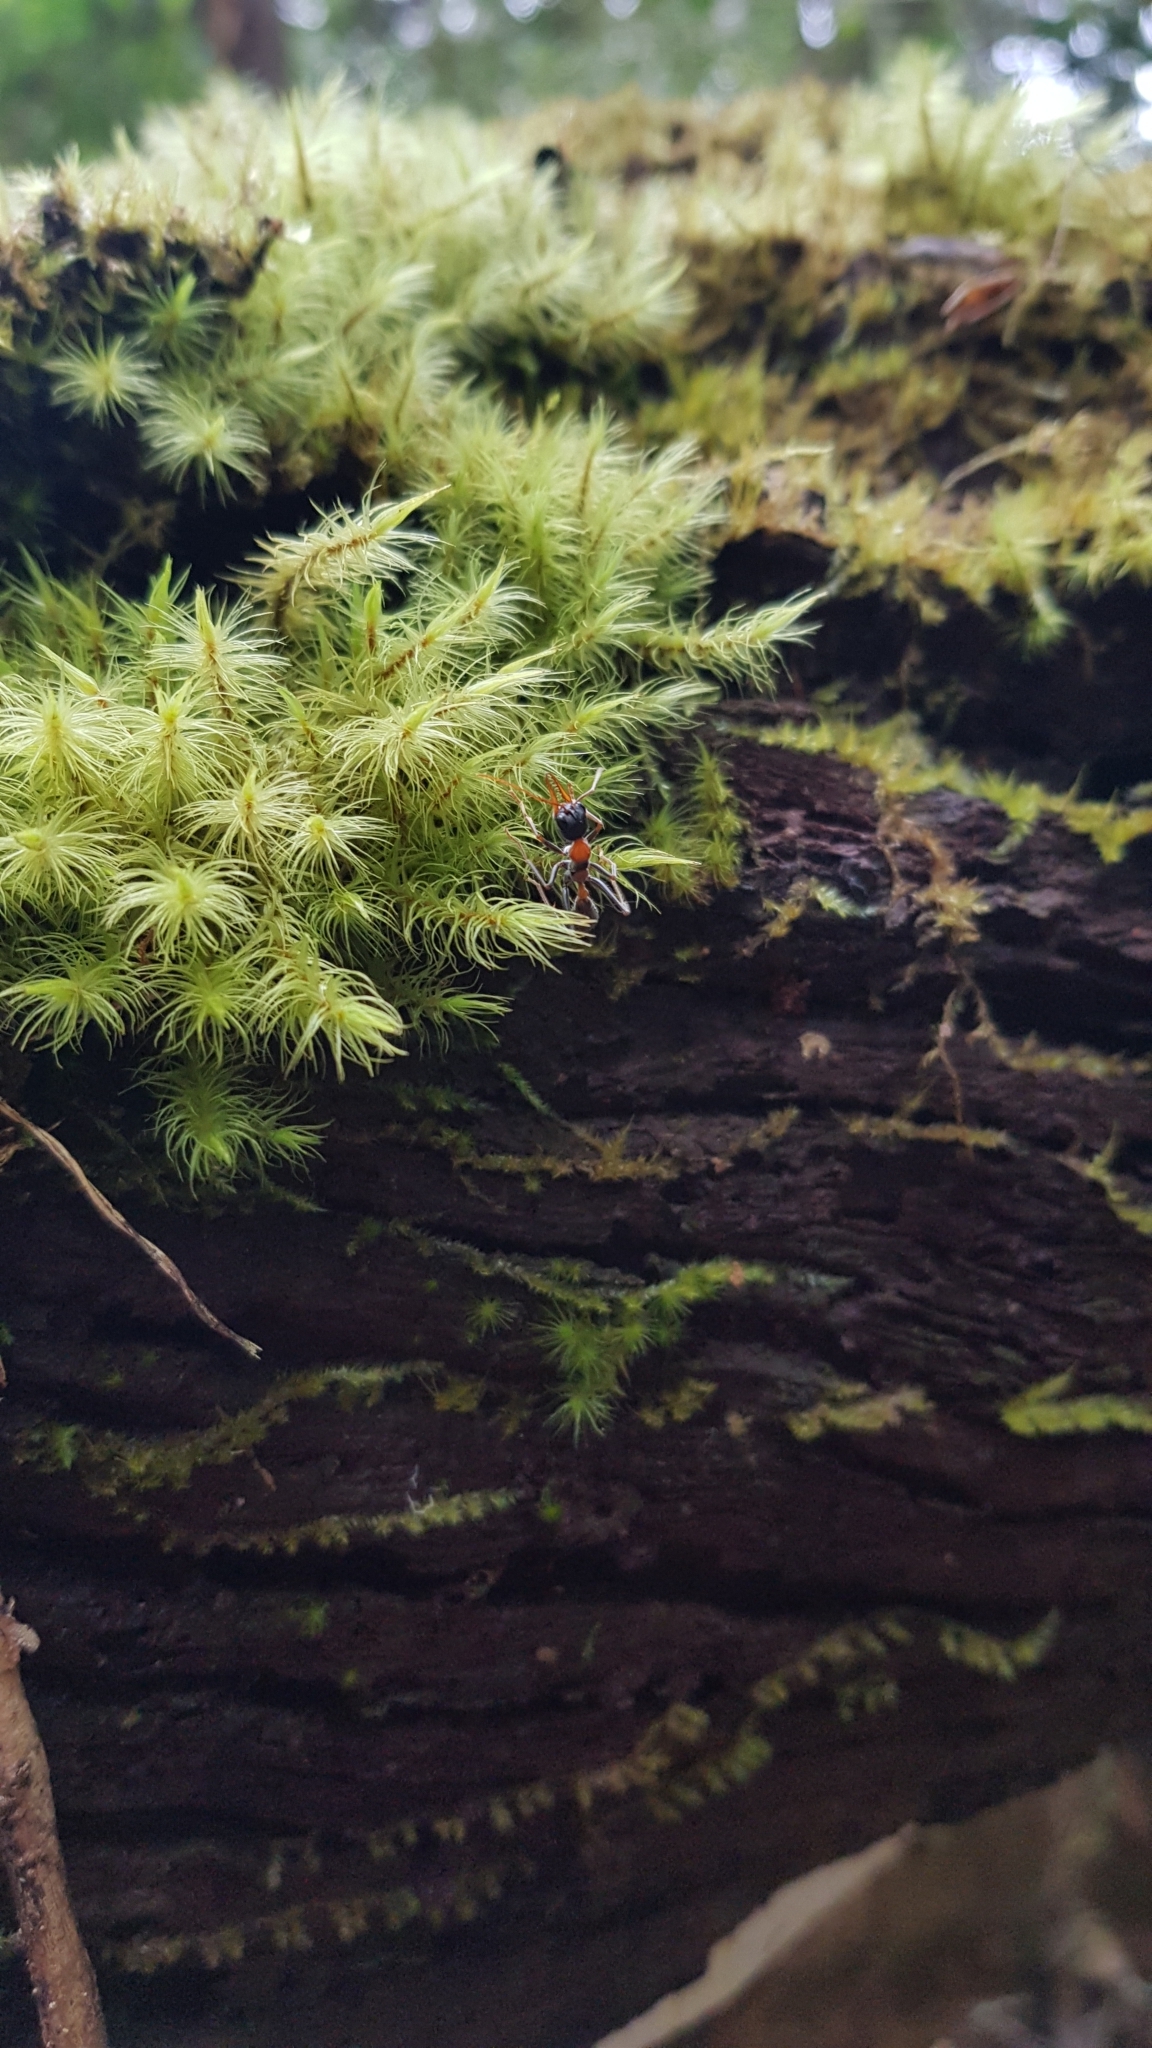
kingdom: Animalia
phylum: Arthropoda
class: Insecta
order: Hymenoptera
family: Formicidae
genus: Myrmecia
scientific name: Myrmecia nigrocincta
